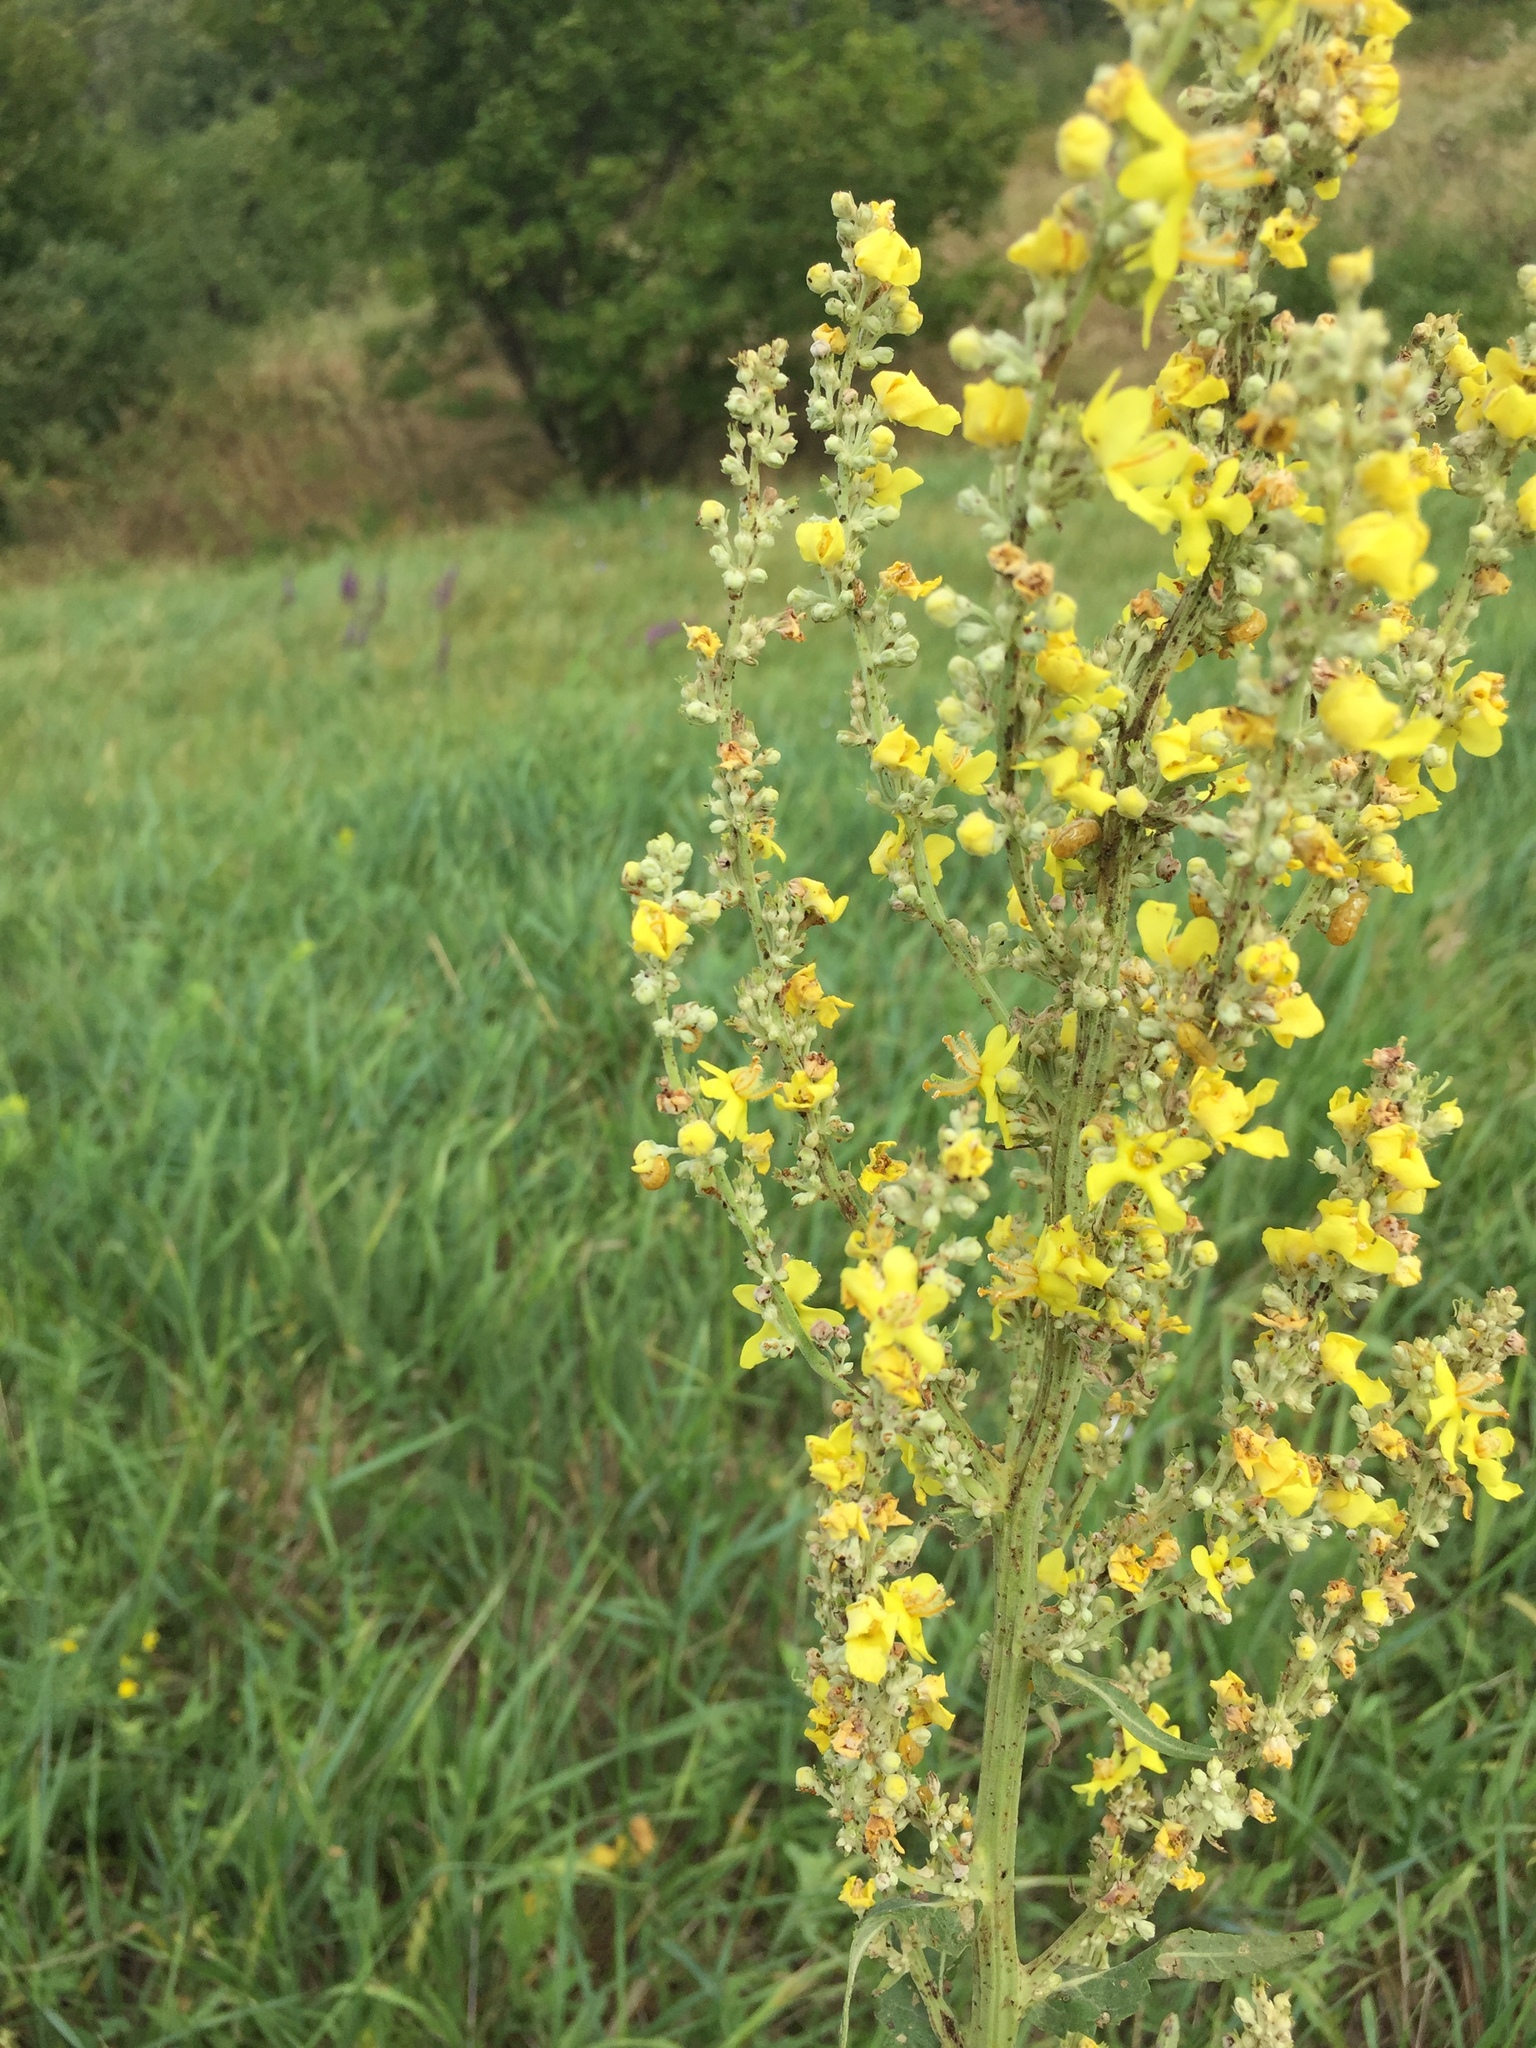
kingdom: Plantae
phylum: Tracheophyta
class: Magnoliopsida
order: Lamiales
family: Scrophulariaceae
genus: Verbascum
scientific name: Verbascum lychnitis
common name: White mullein
